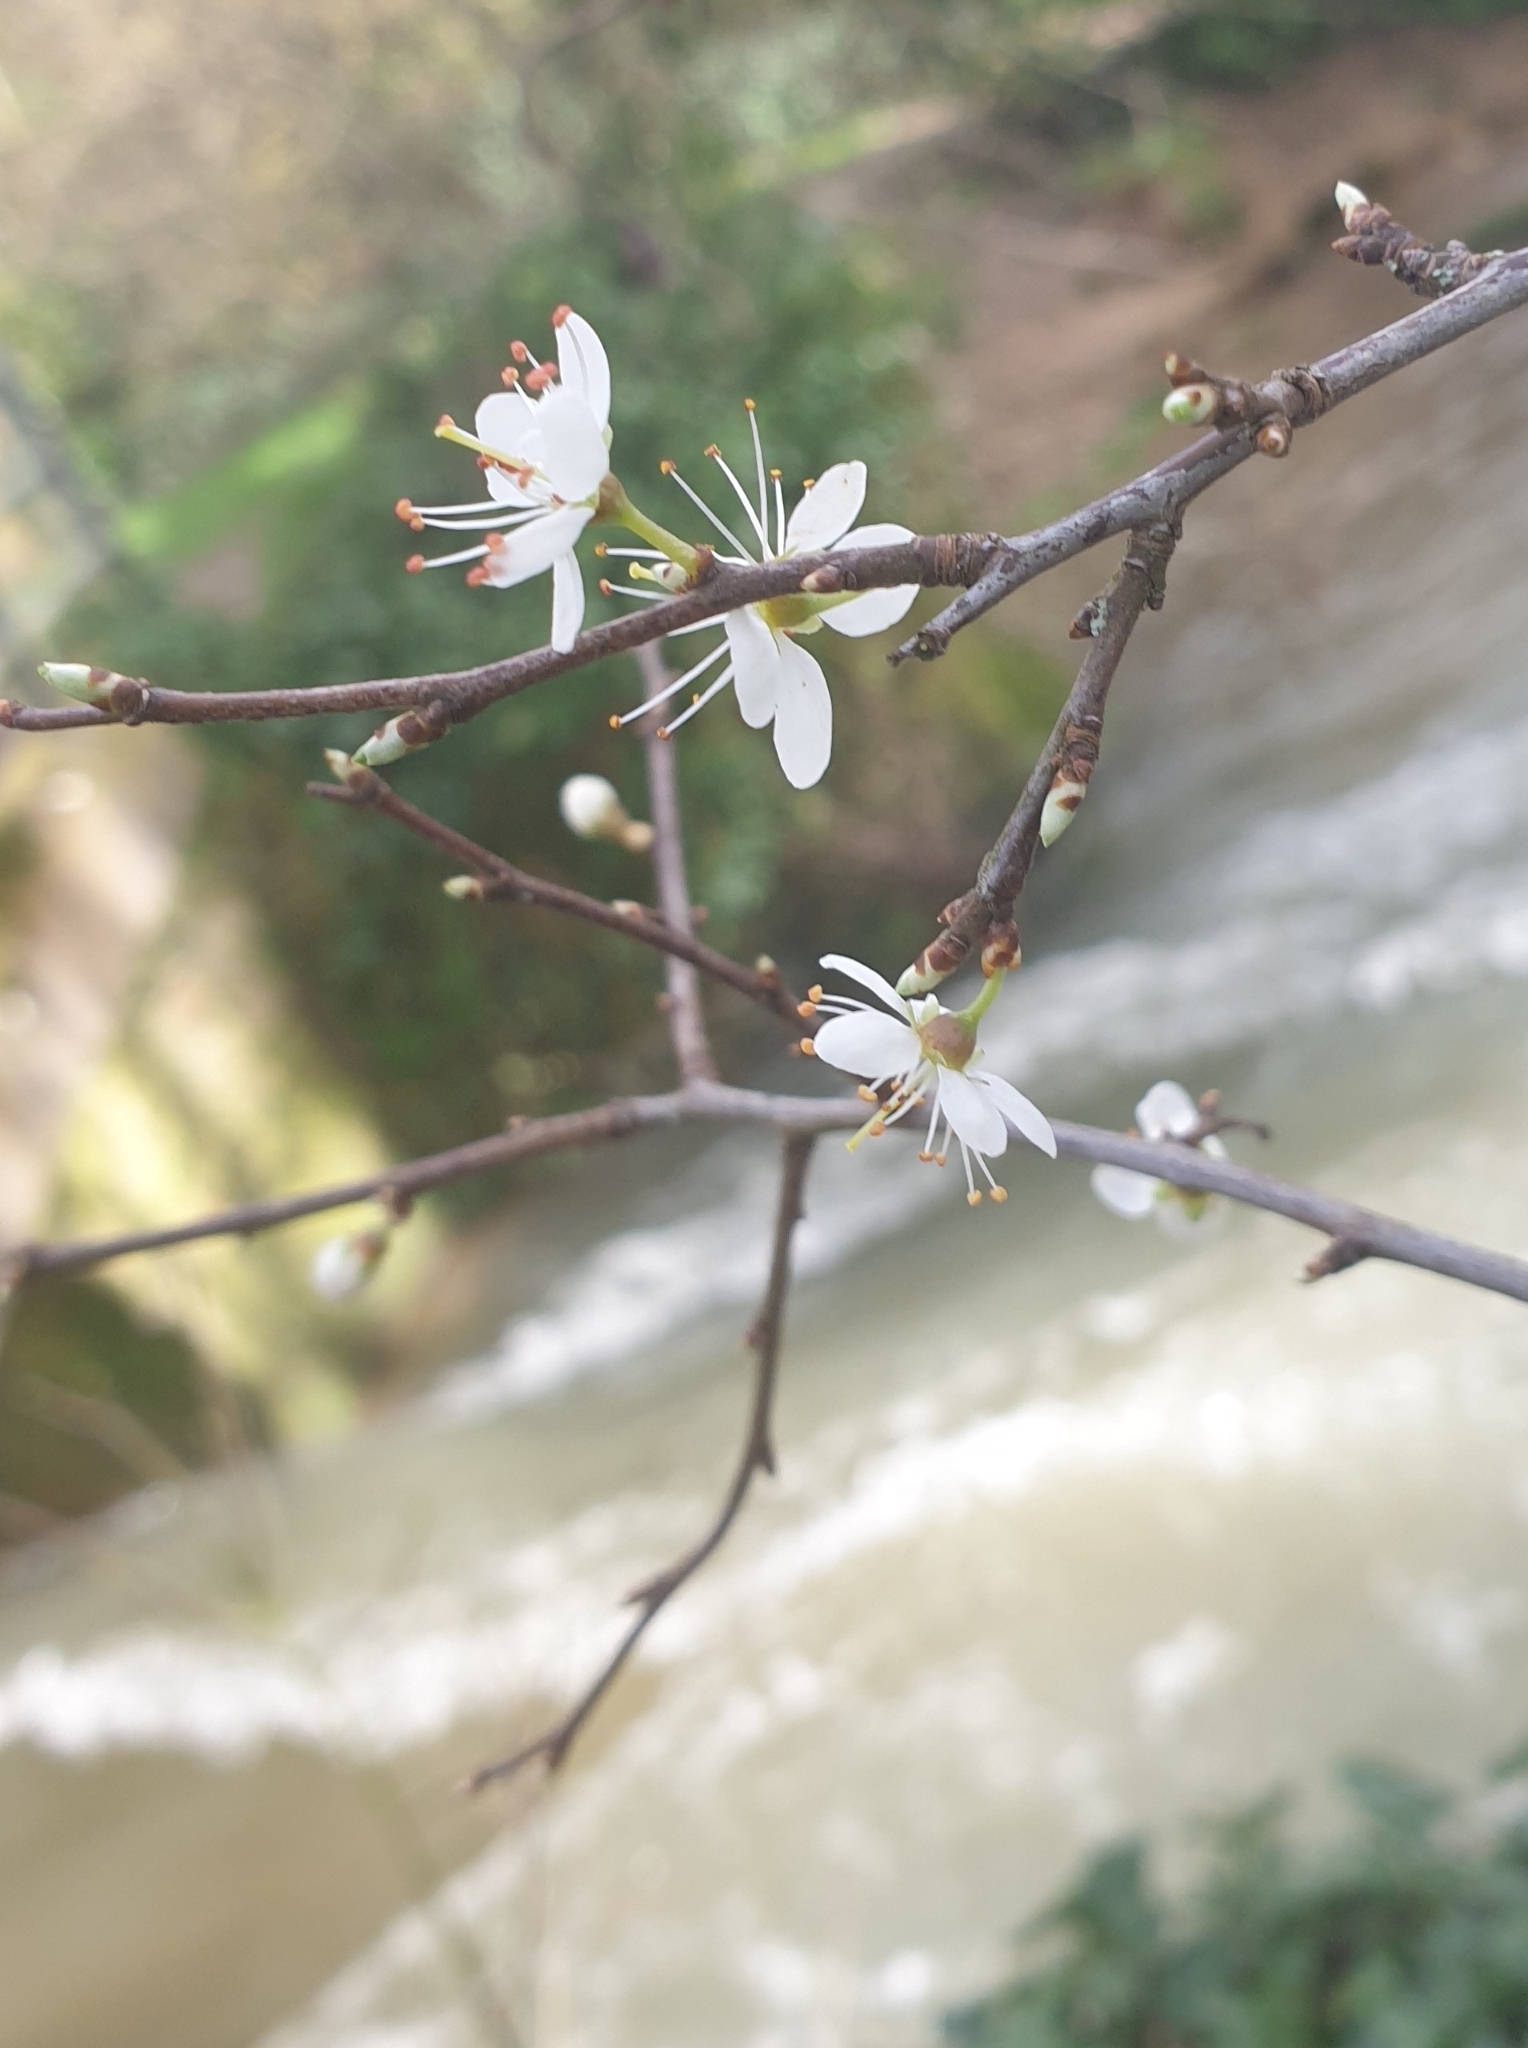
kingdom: Plantae
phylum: Tracheophyta
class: Magnoliopsida
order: Rosales
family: Rosaceae
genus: Prunus
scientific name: Prunus cerasifera
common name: Cherry plum
